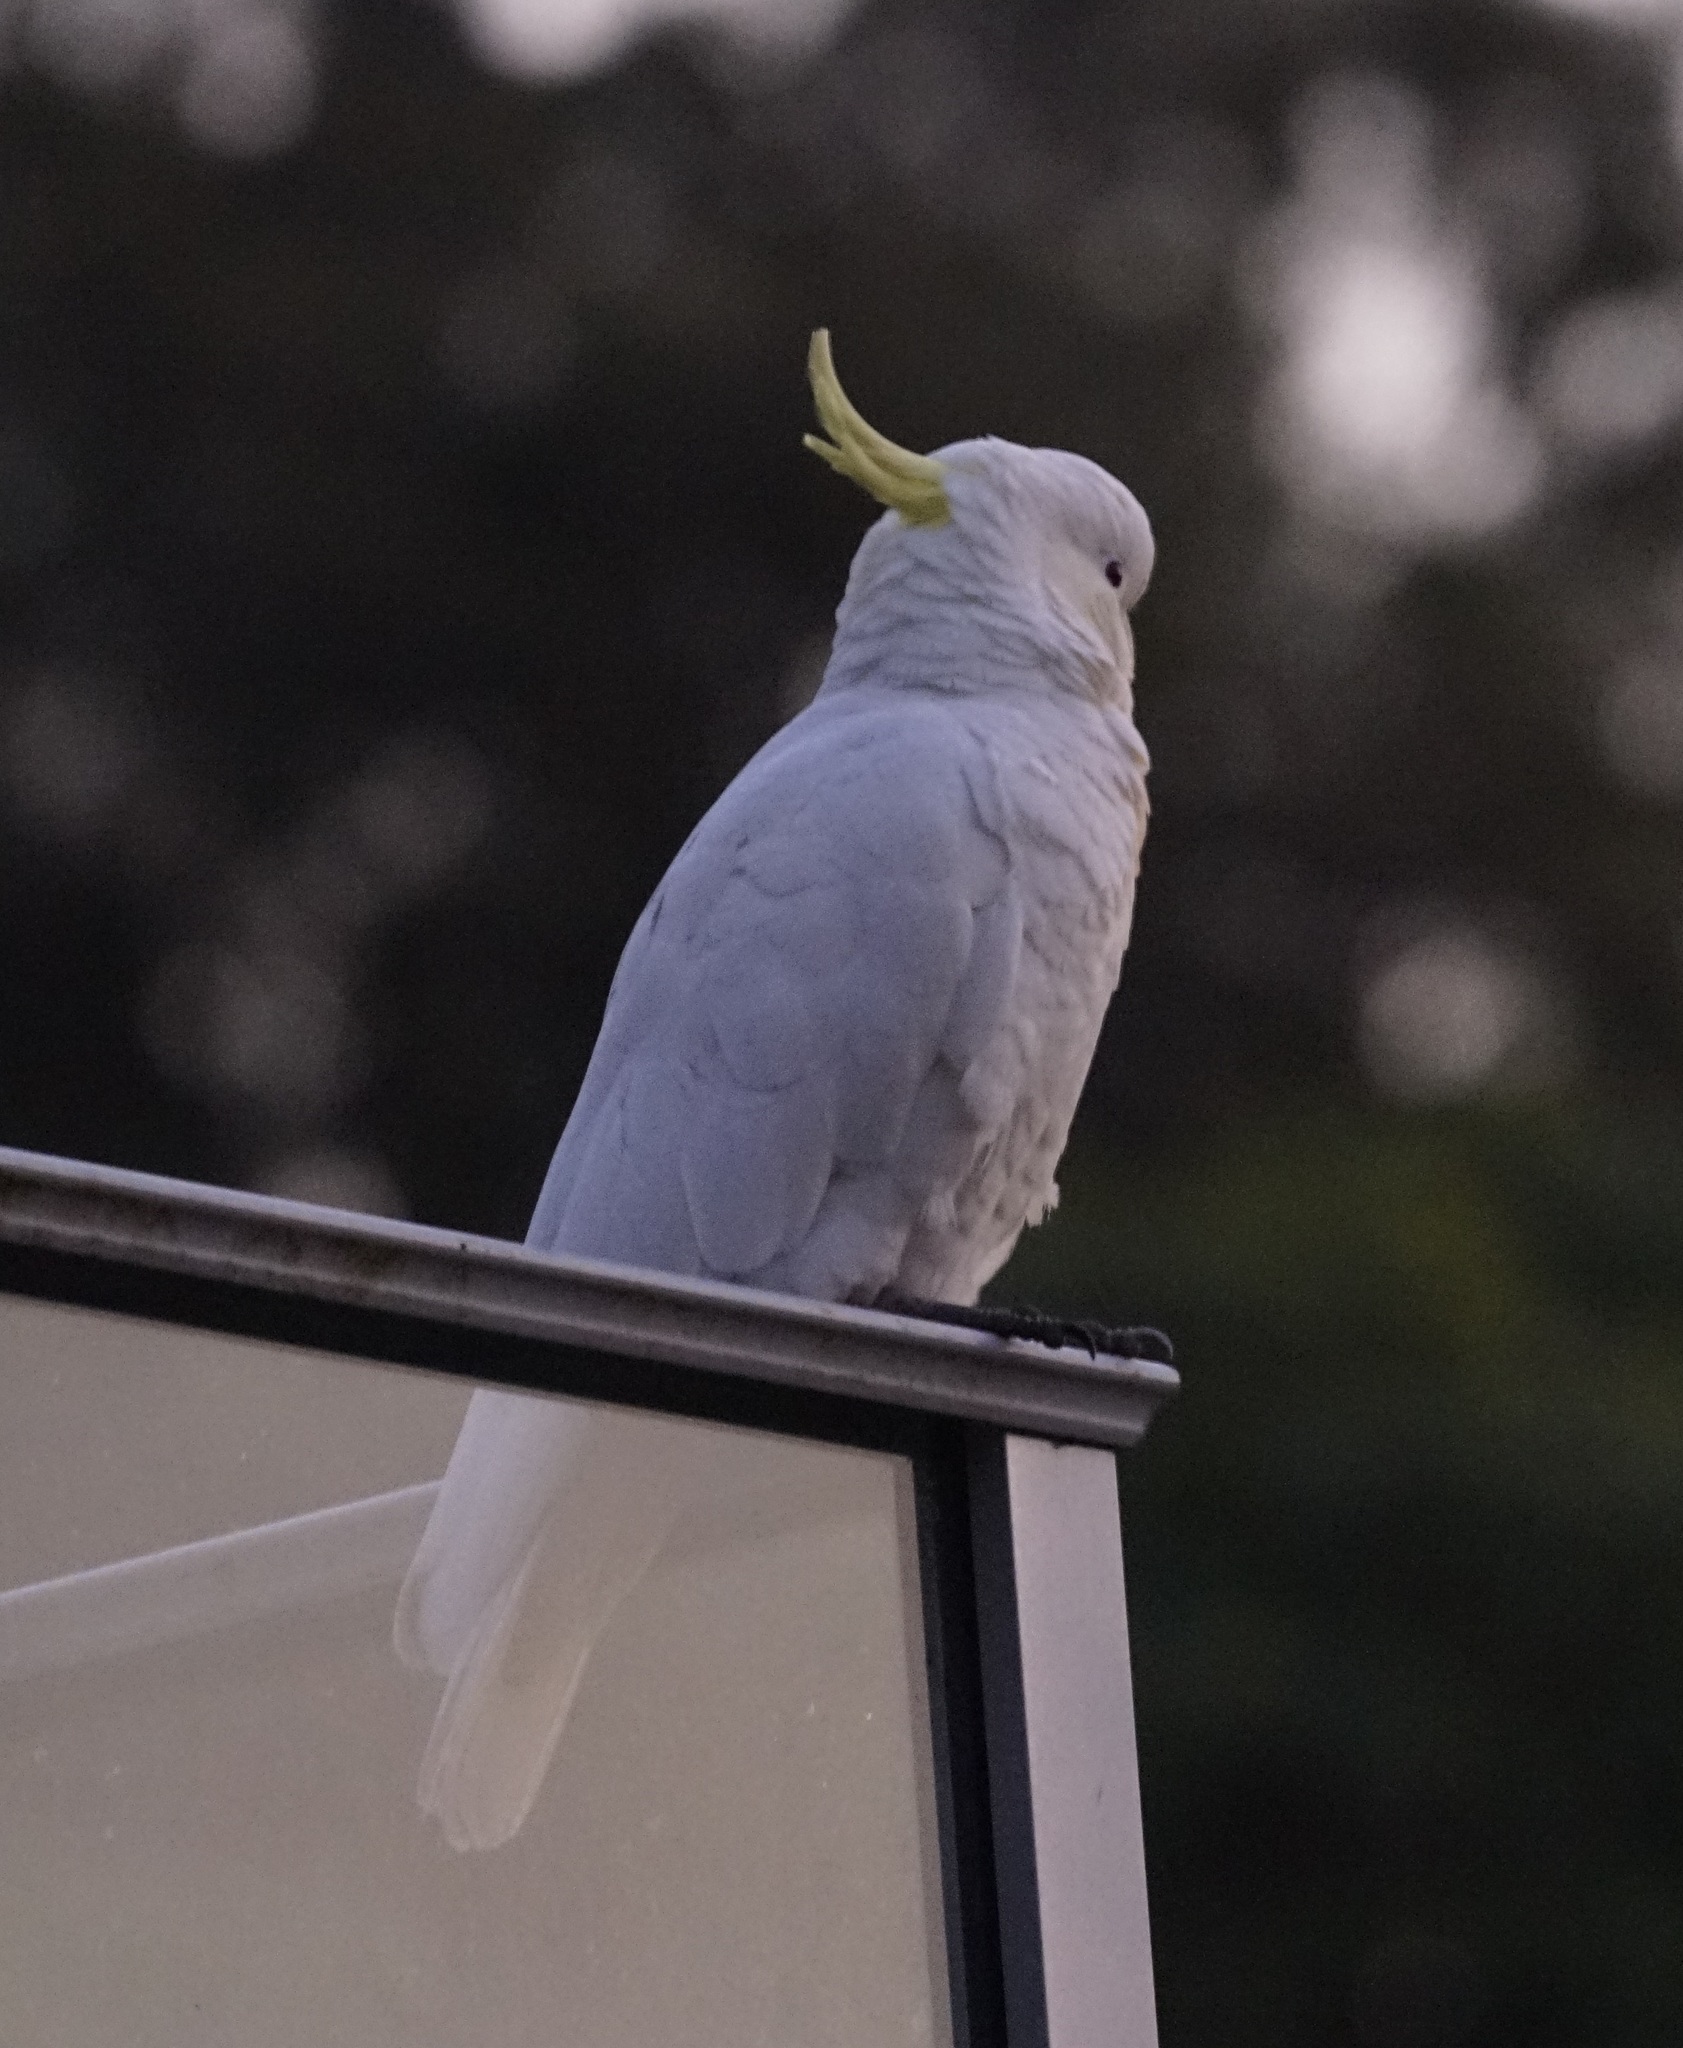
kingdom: Animalia
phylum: Chordata
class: Aves
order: Psittaciformes
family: Psittacidae
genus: Cacatua
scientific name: Cacatua galerita
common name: Sulphur-crested cockatoo
